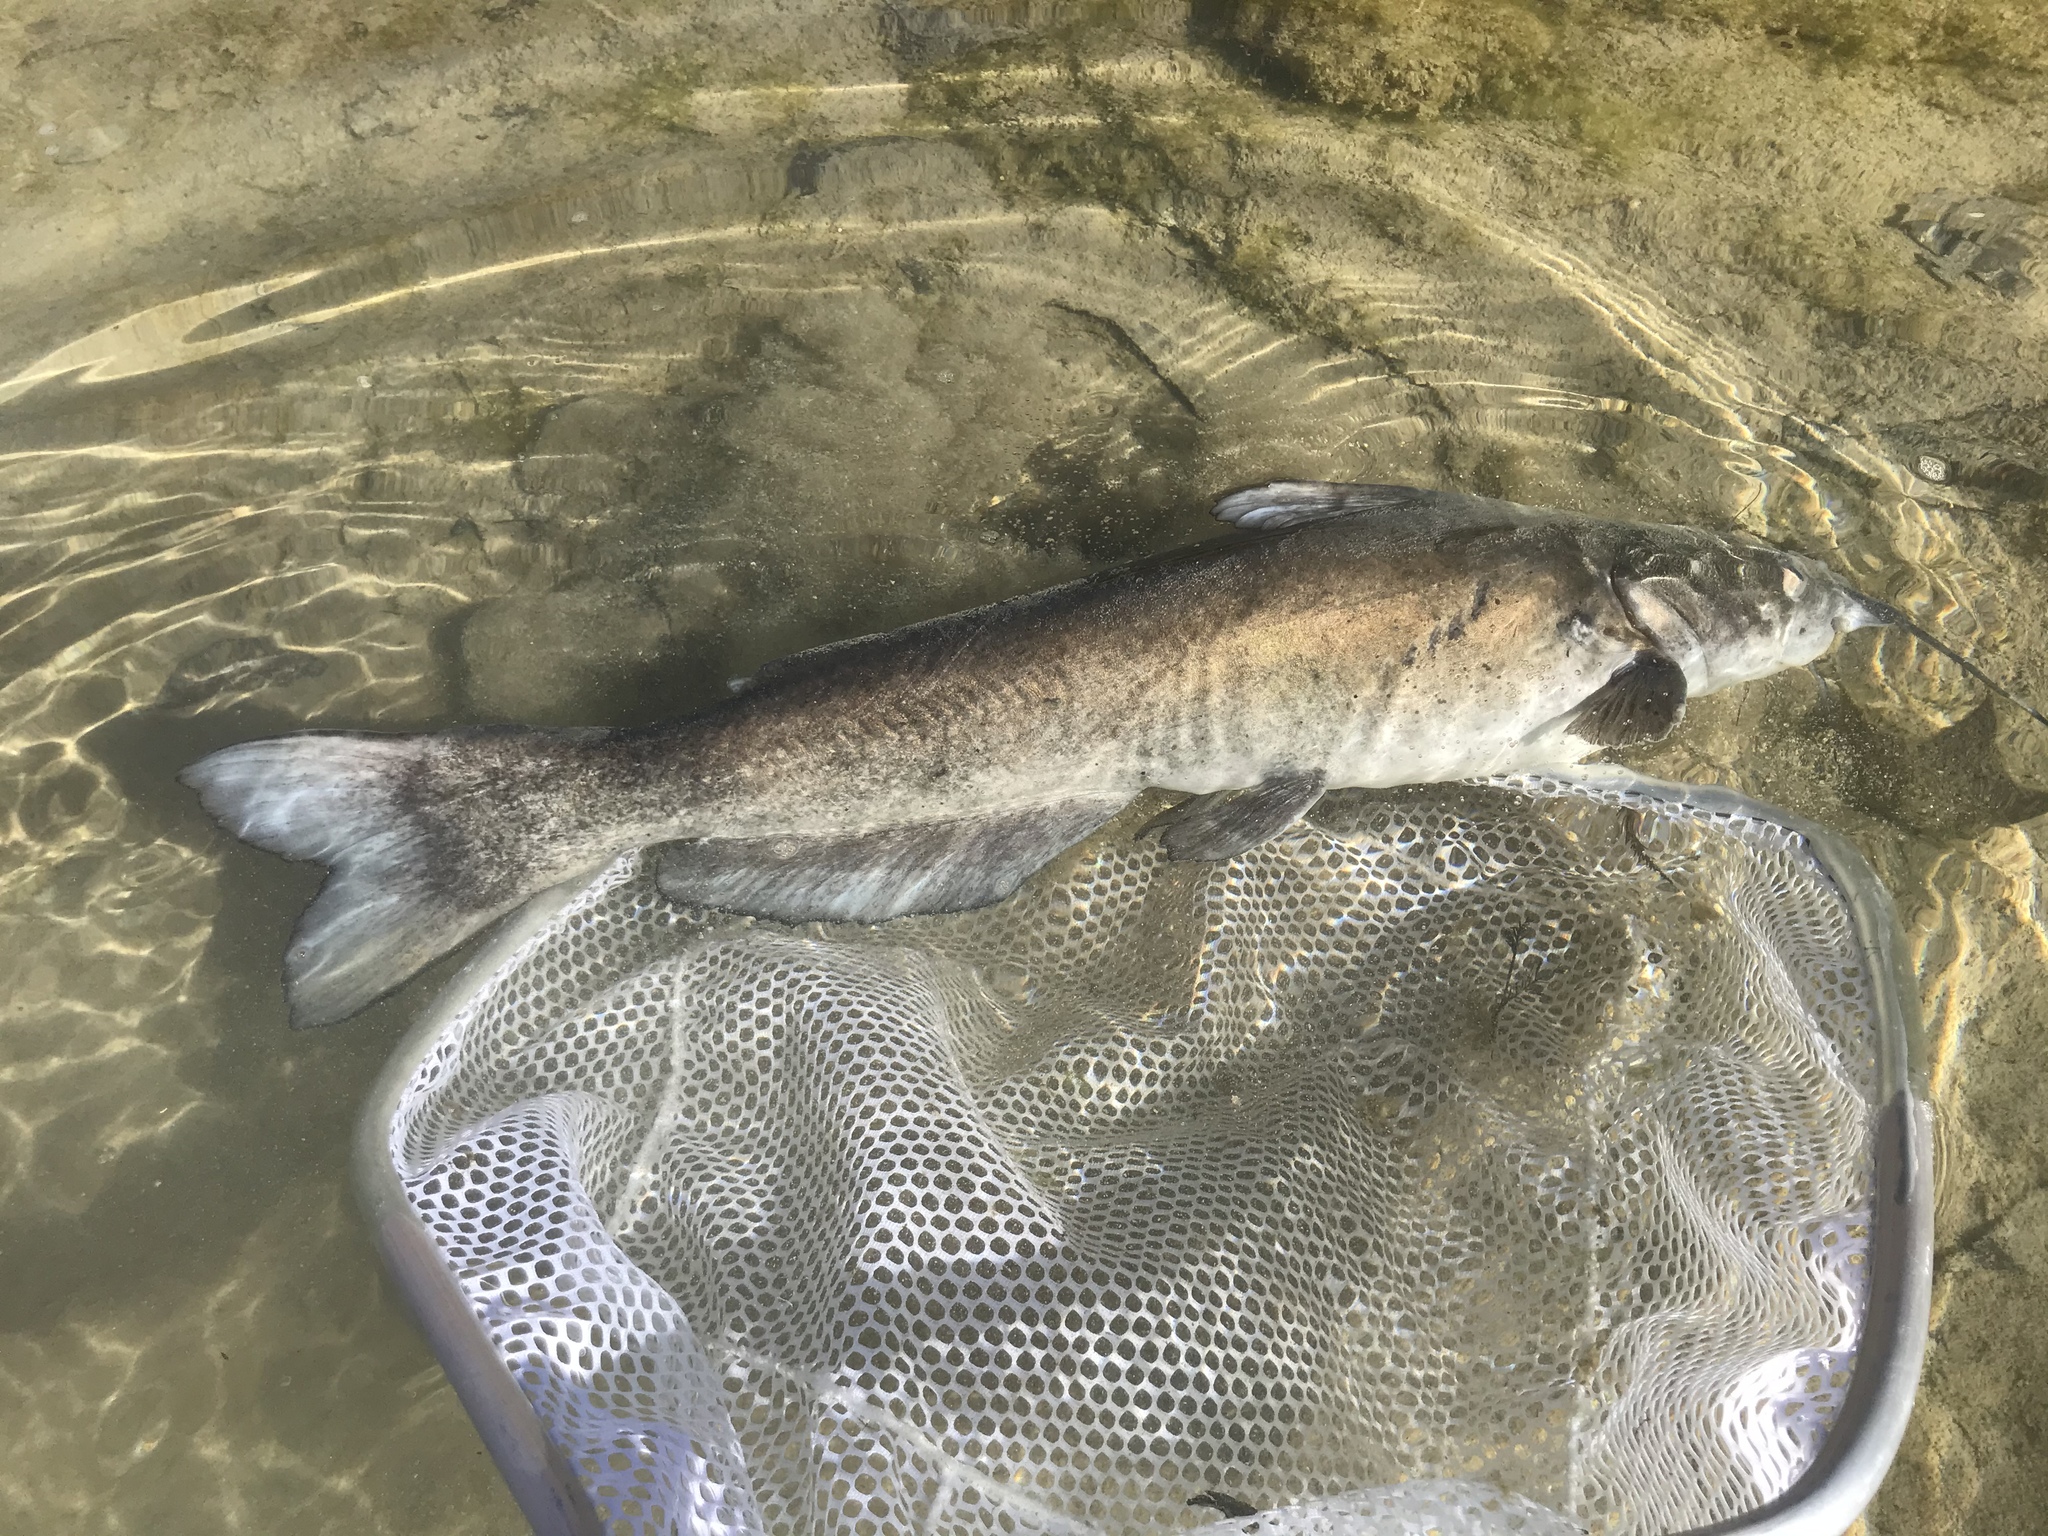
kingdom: Animalia
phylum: Chordata
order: Siluriformes
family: Ictaluridae
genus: Ictalurus
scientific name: Ictalurus punctatus
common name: Channel catfish
